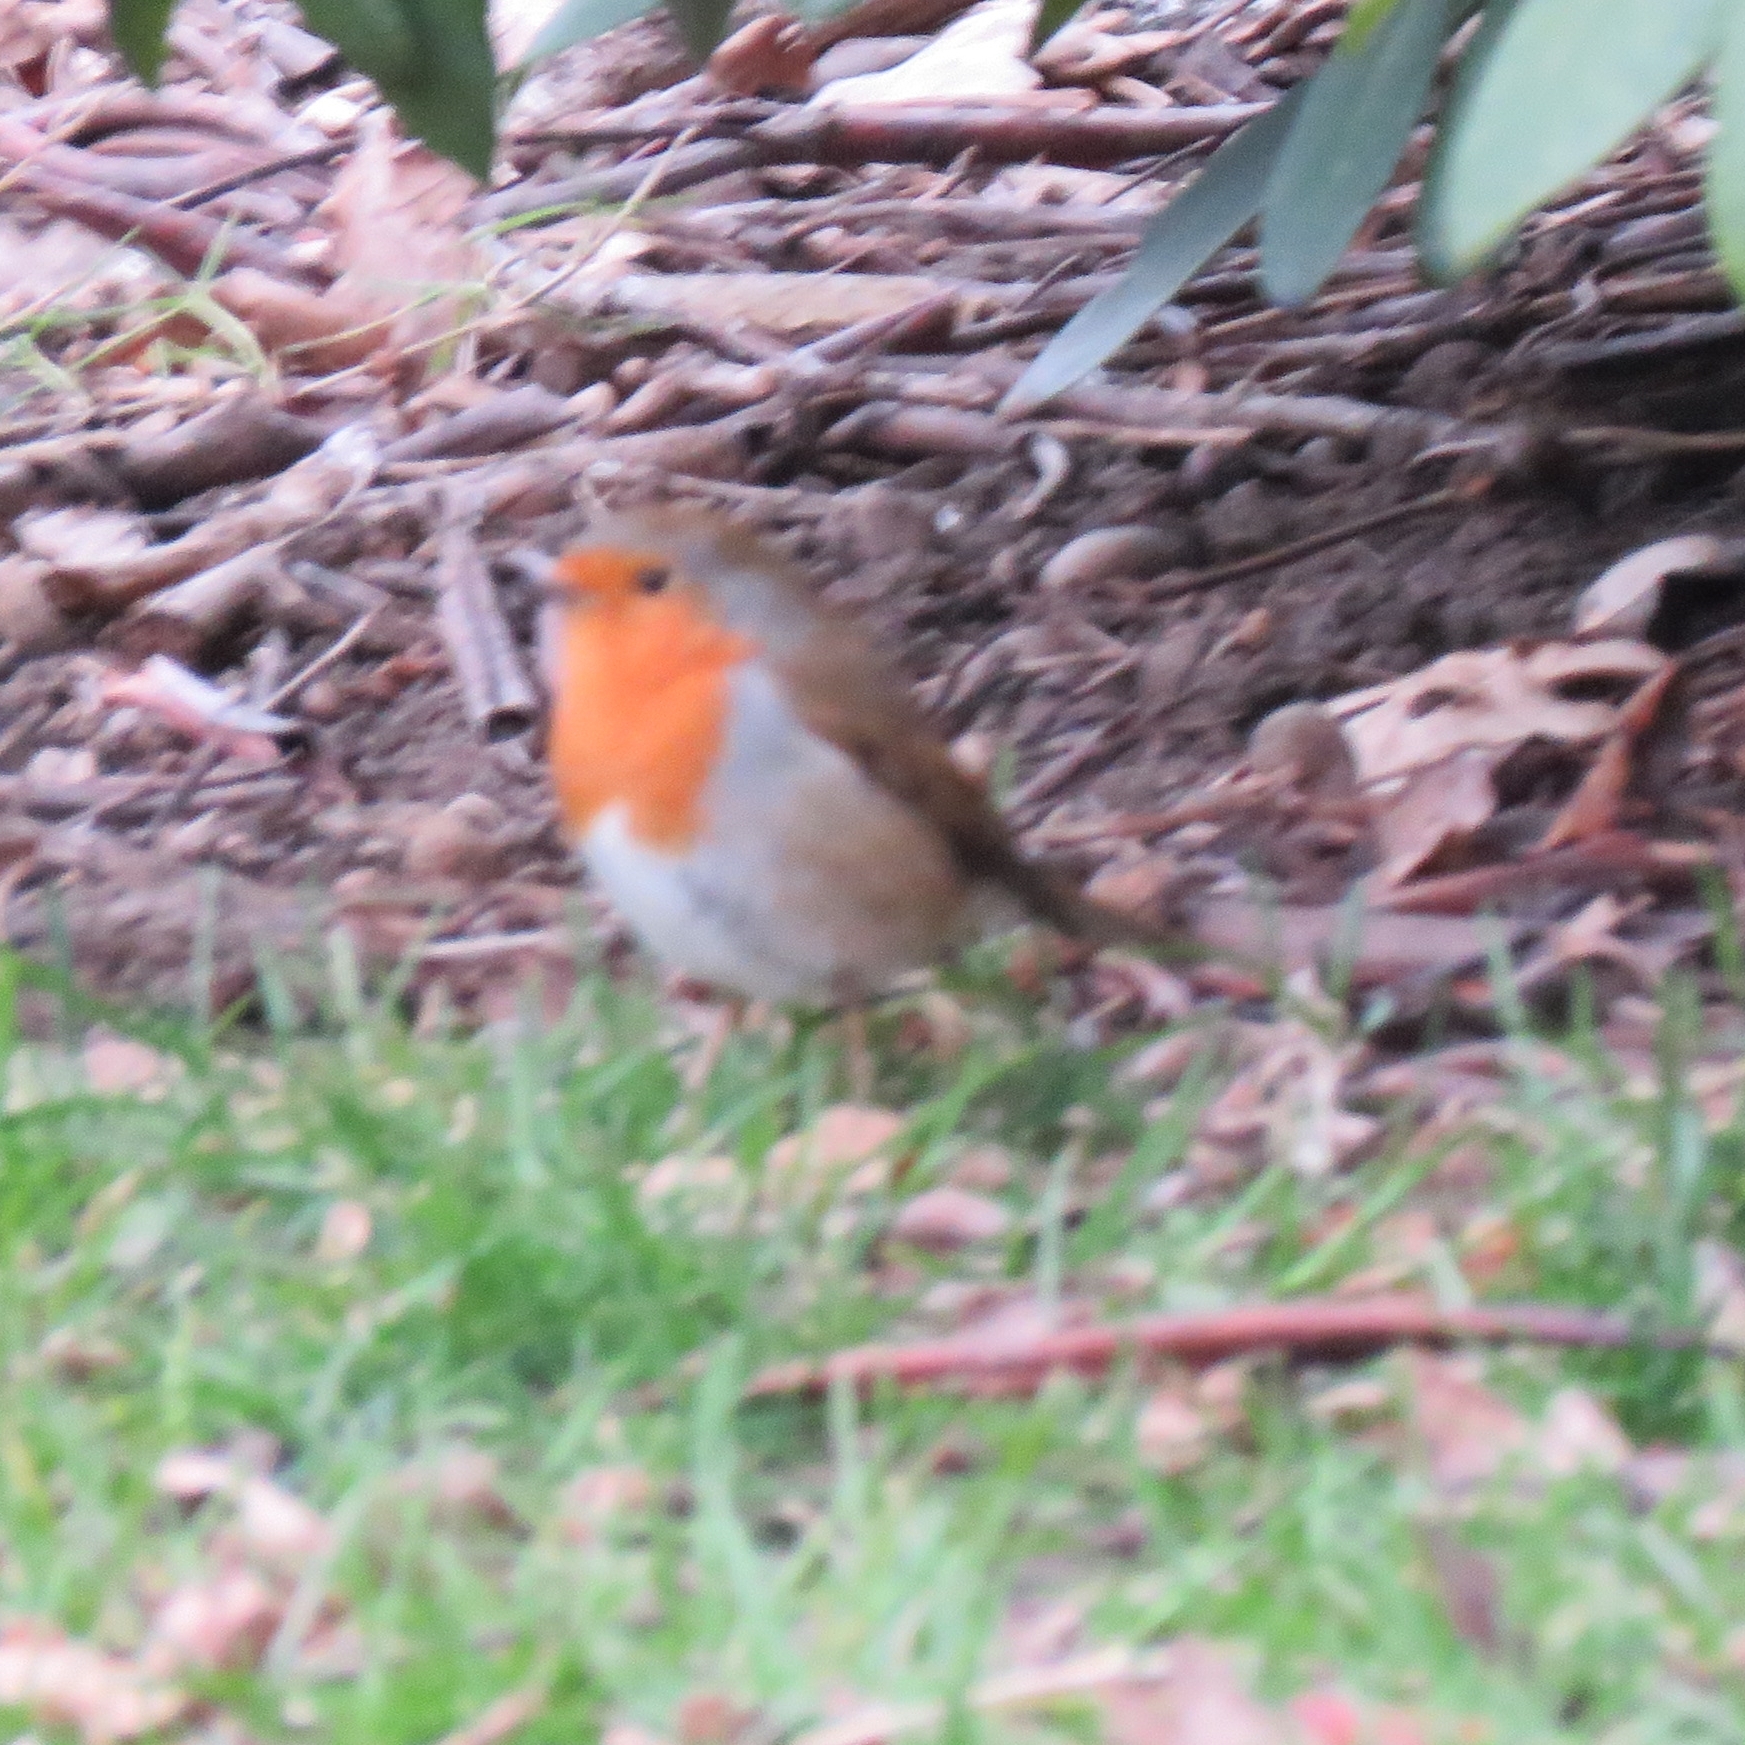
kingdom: Animalia
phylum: Chordata
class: Aves
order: Passeriformes
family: Muscicapidae
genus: Erithacus
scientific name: Erithacus rubecula
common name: European robin
